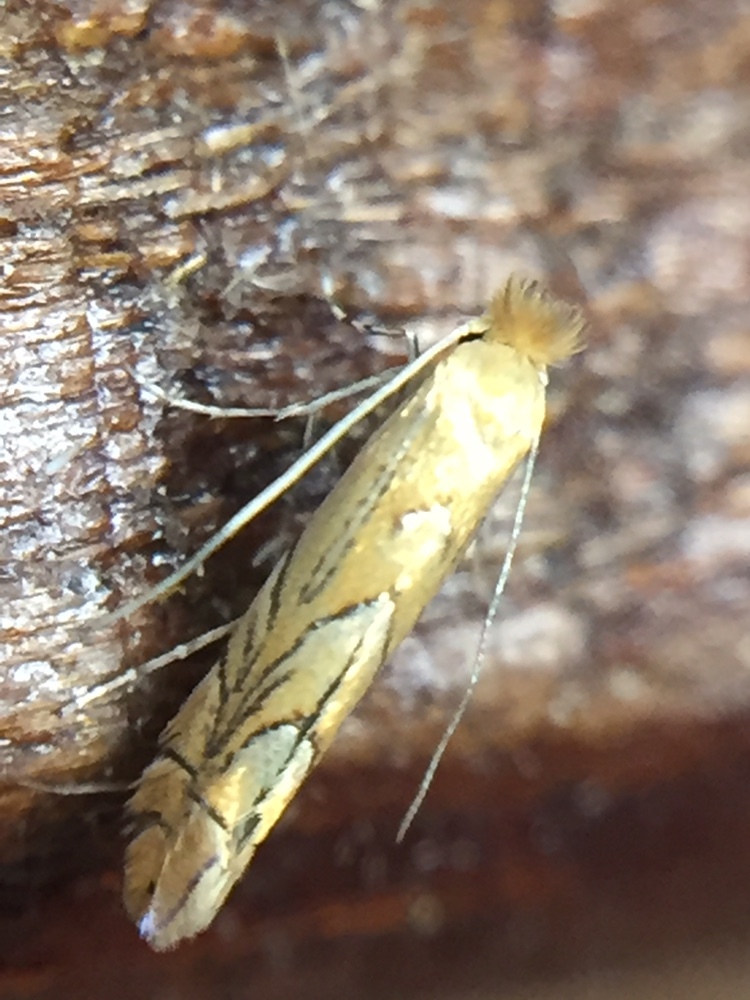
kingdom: Animalia
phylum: Arthropoda
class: Insecta
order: Lepidoptera
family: Gracillariidae
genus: Phyllonorycter
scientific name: Phyllonorycter messaniella
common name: Garden midget
